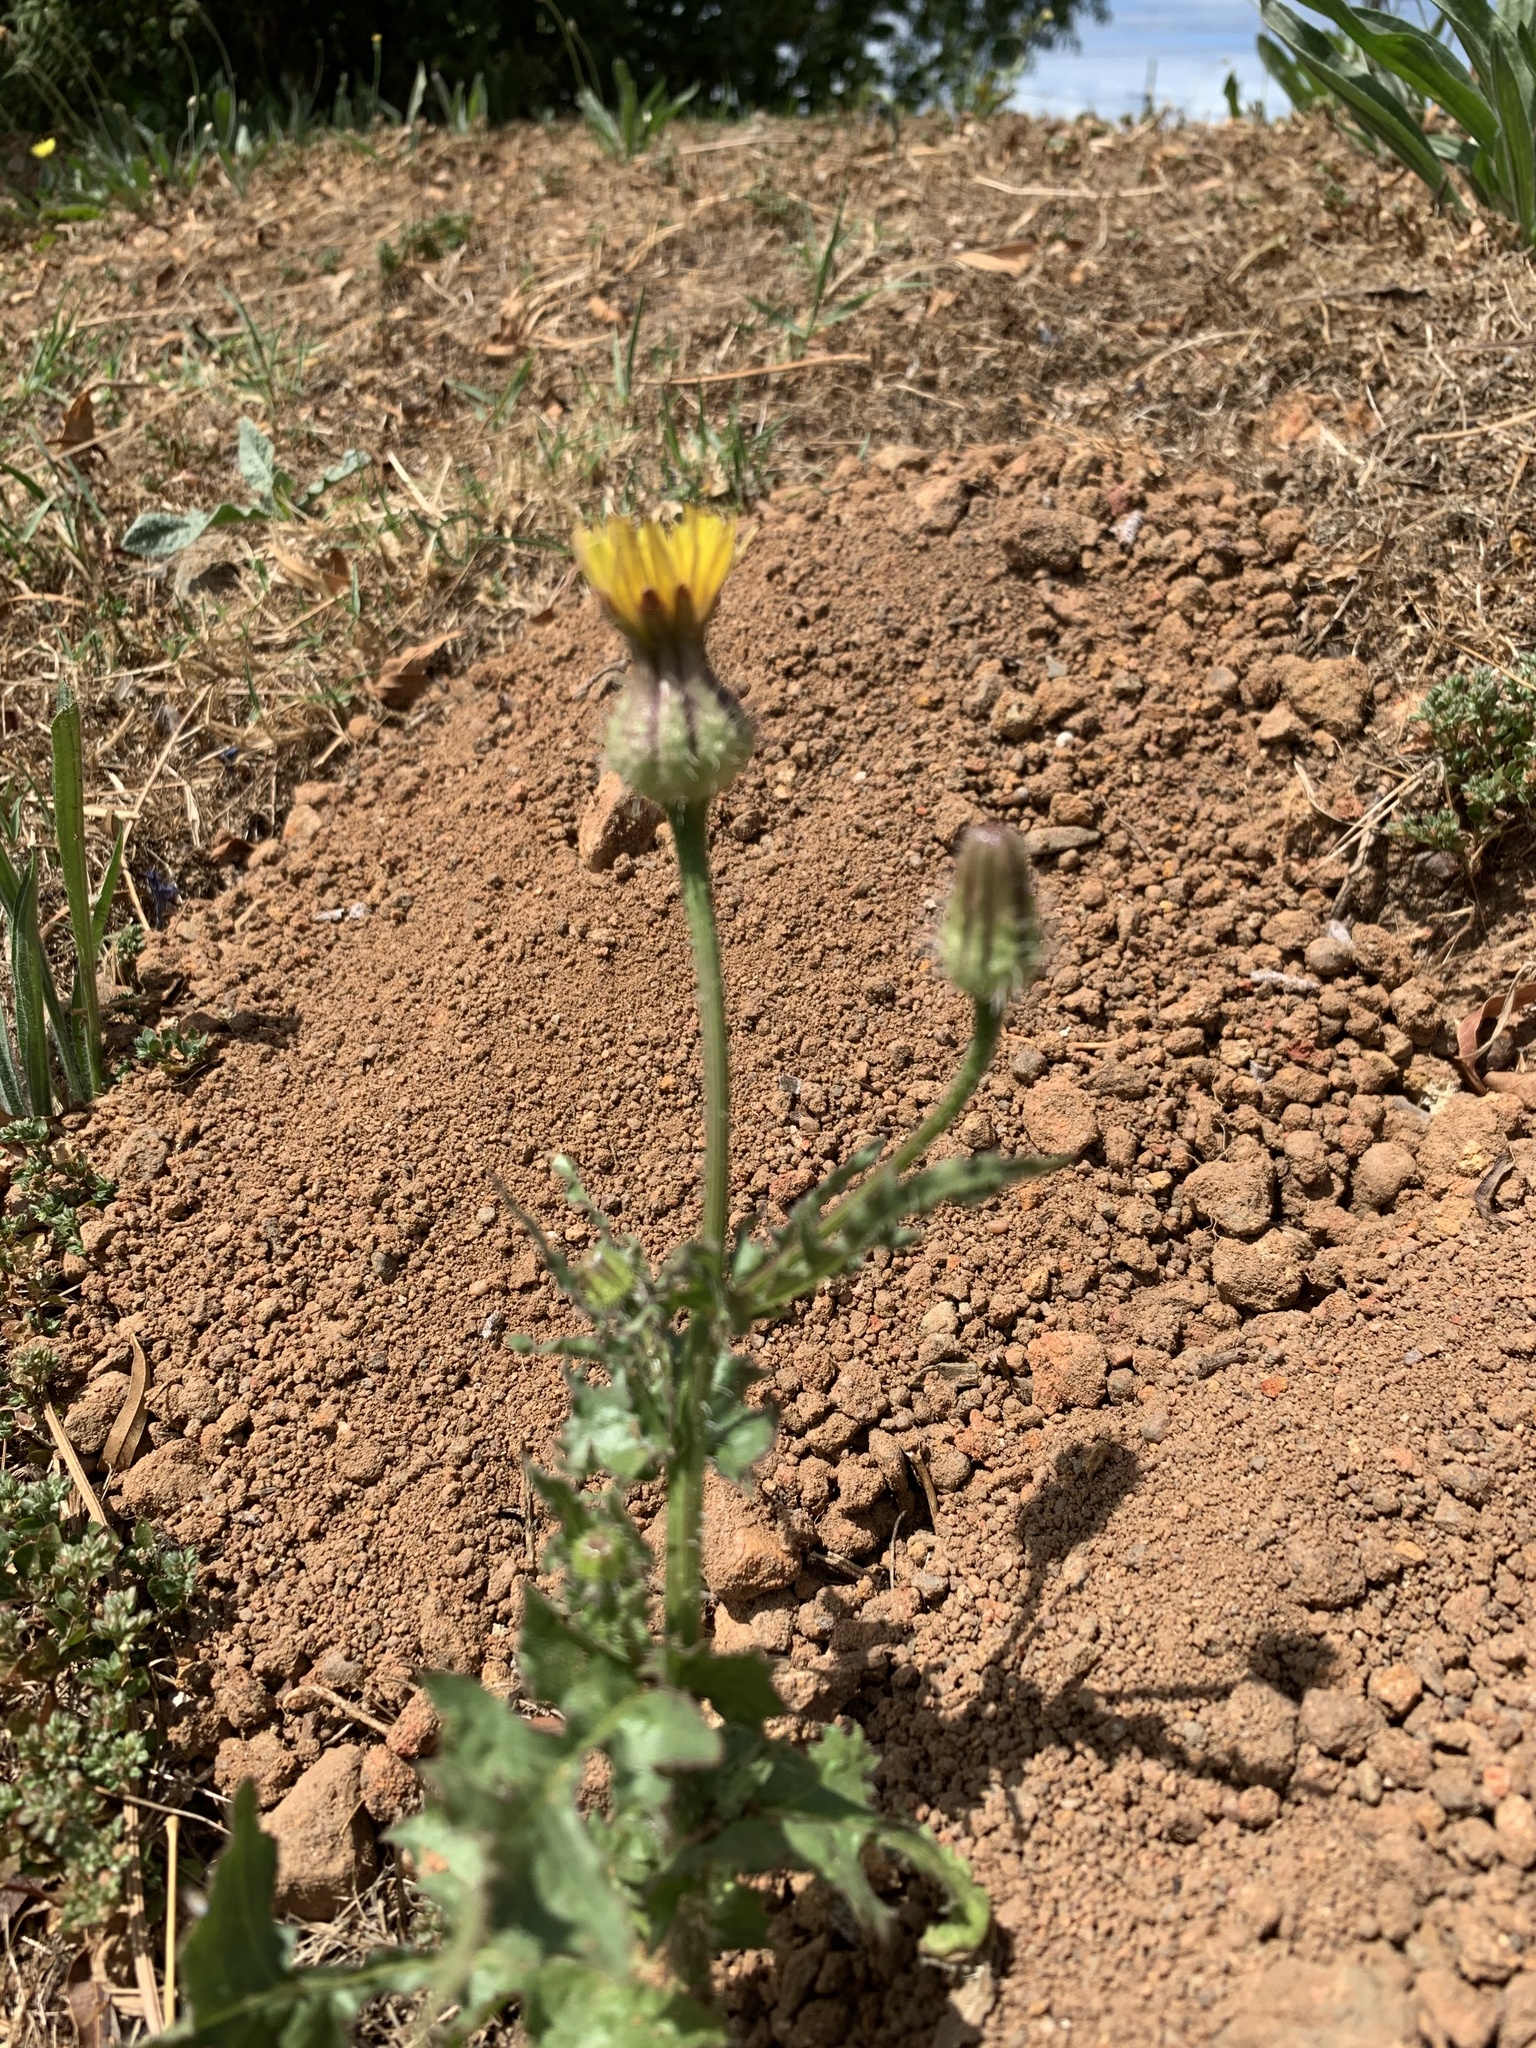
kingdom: Plantae
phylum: Tracheophyta
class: Magnoliopsida
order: Asterales
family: Asteraceae
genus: Urospermum
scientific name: Urospermum picroides
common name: False hawkbit
